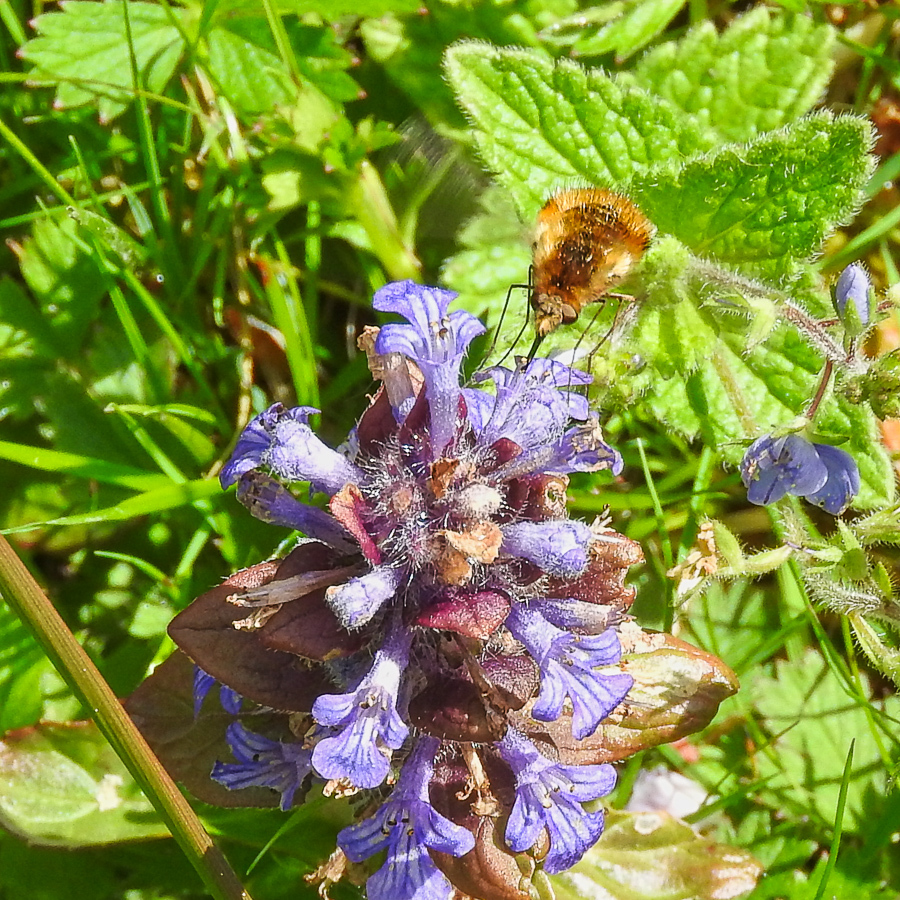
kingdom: Animalia
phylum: Arthropoda
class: Insecta
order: Diptera
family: Bombyliidae
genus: Bombylius
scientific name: Bombylius major
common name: Bee fly
